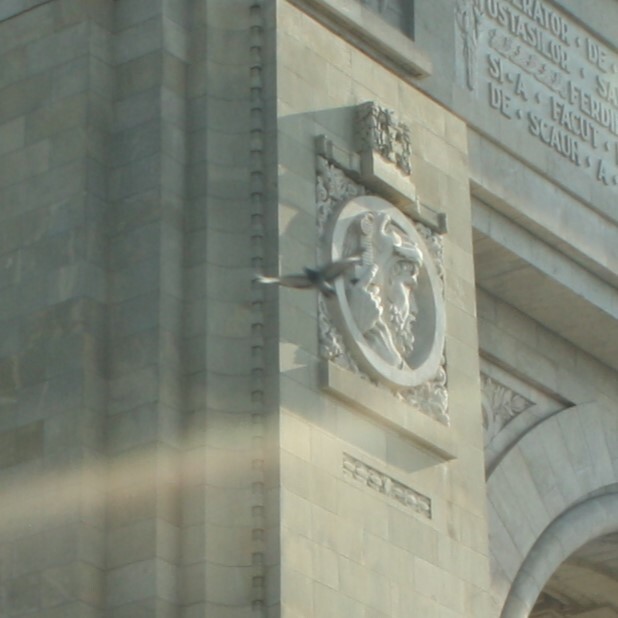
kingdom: Animalia
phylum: Chordata
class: Aves
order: Columbiformes
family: Columbidae
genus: Columba
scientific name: Columba livia
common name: Rock pigeon
